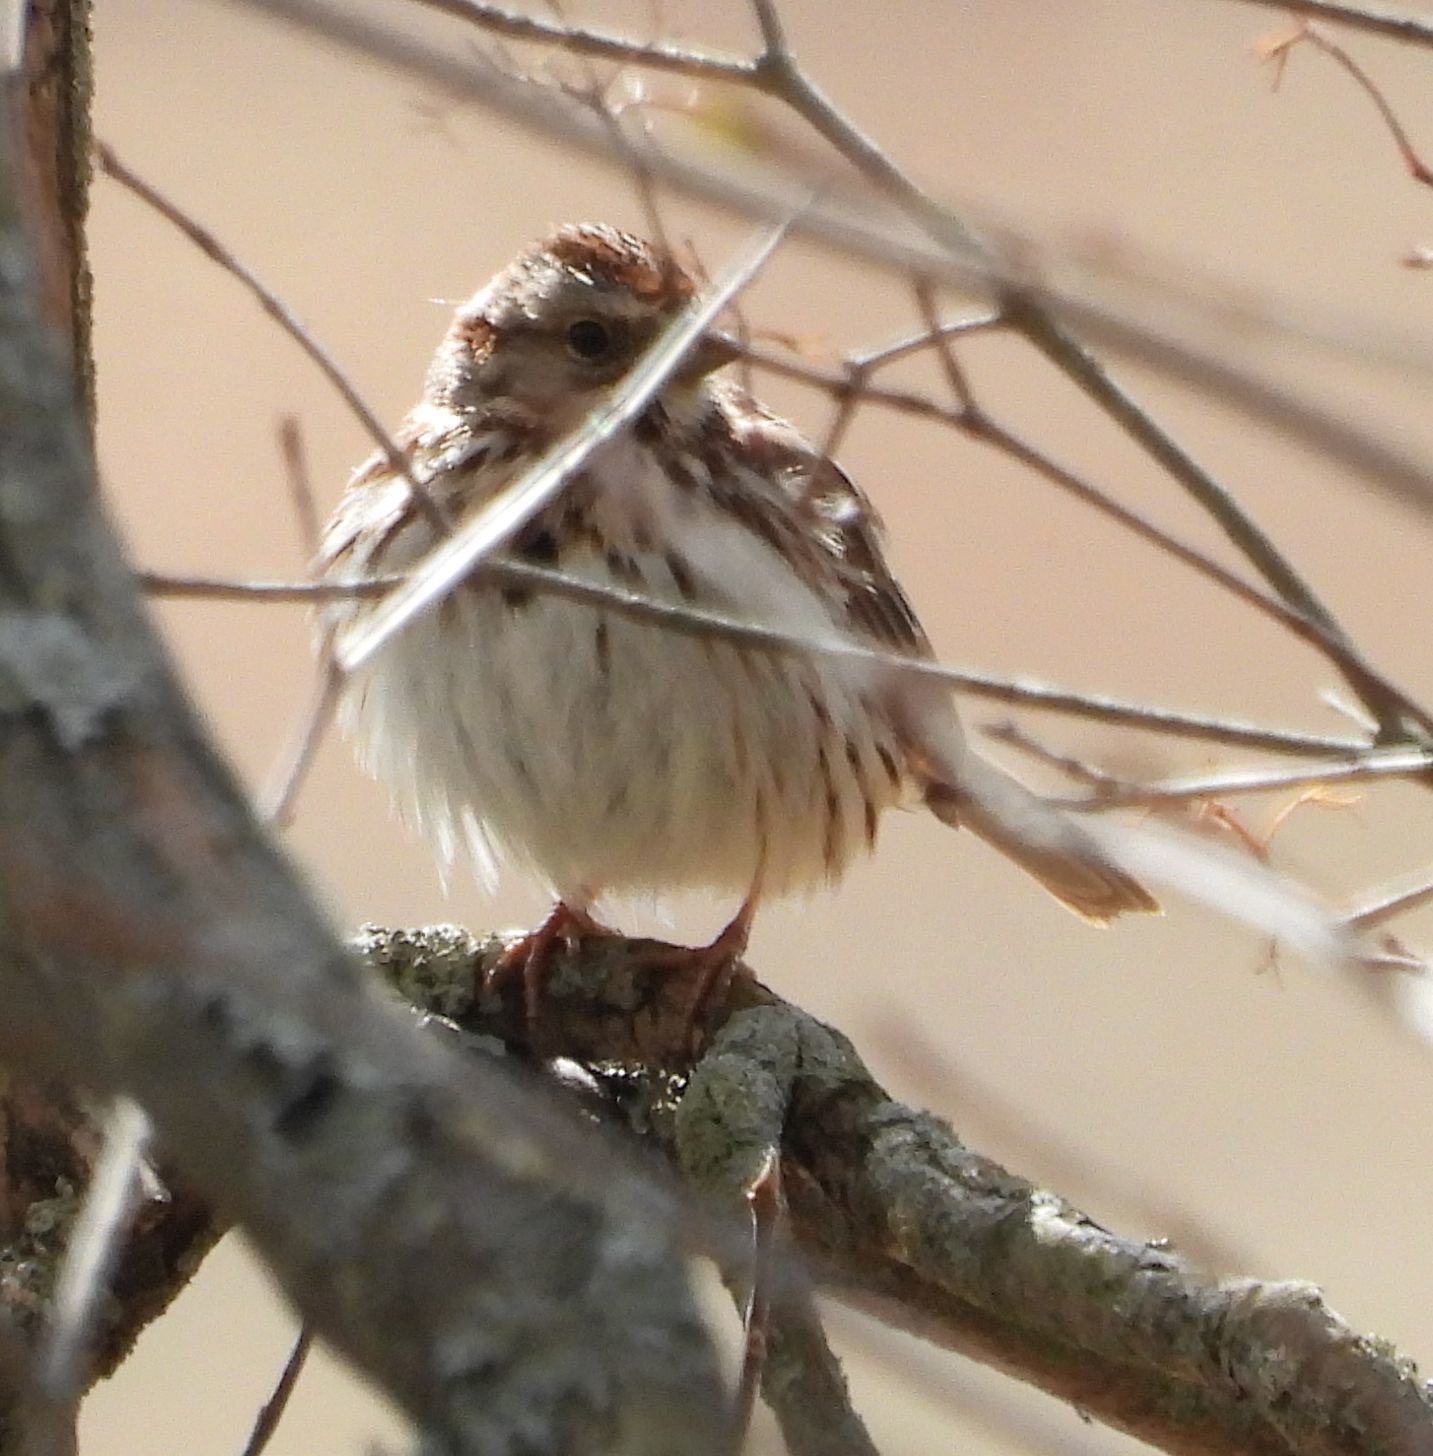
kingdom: Animalia
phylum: Chordata
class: Aves
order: Passeriformes
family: Passerellidae
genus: Melospiza
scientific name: Melospiza melodia
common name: Song sparrow
